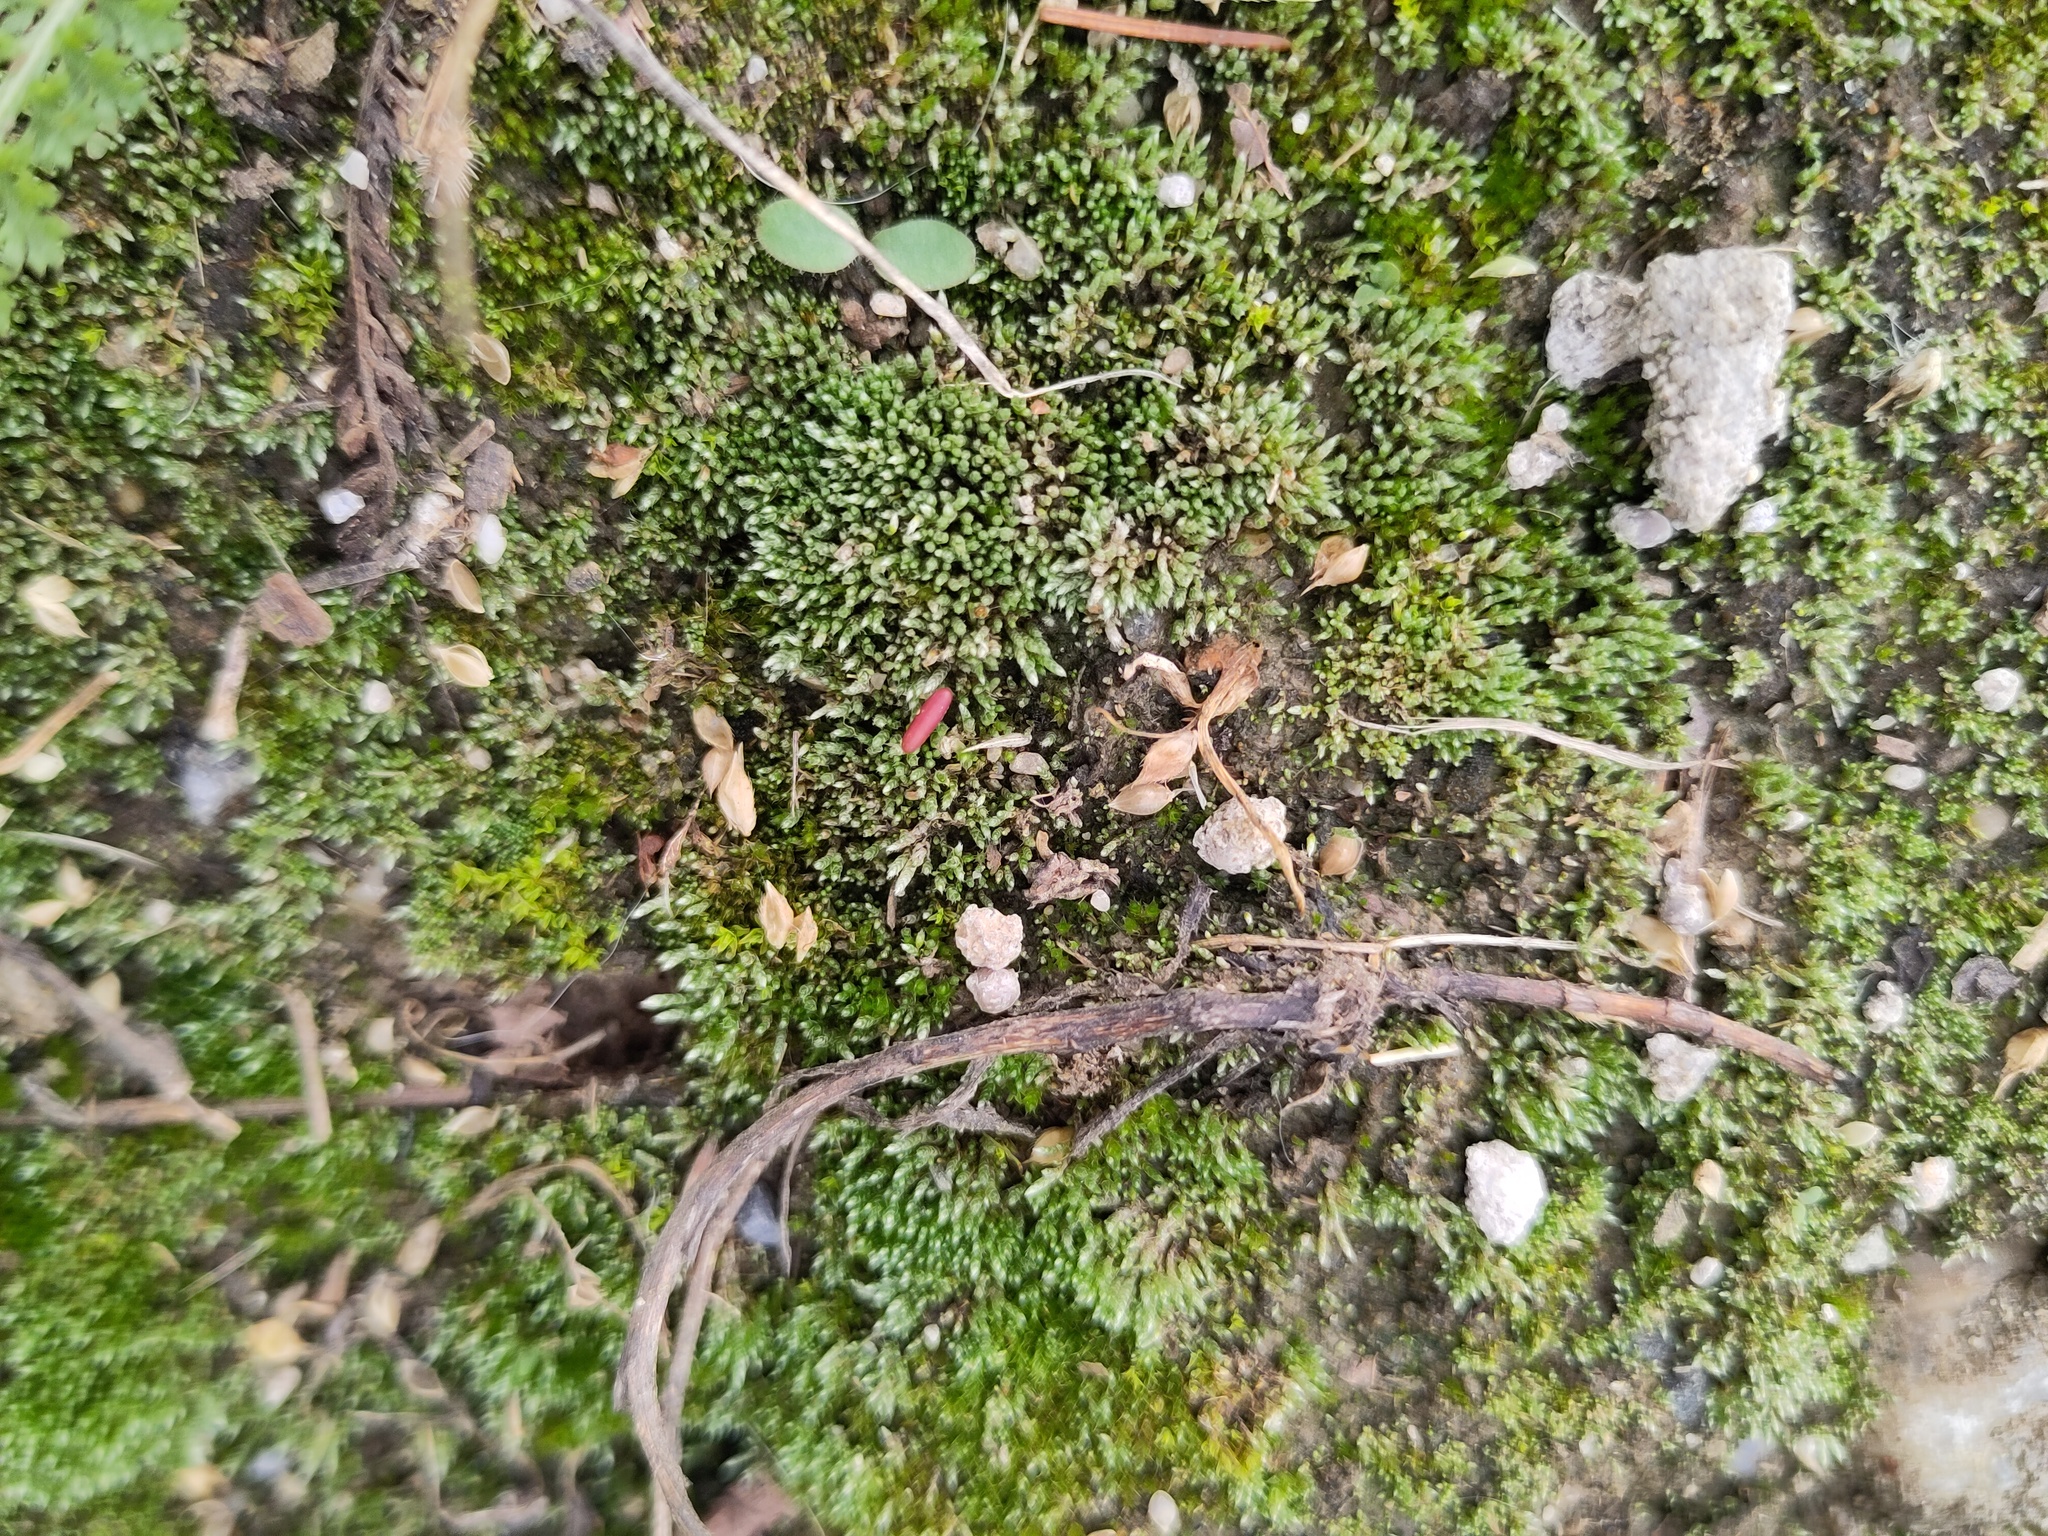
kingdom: Plantae
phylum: Bryophyta
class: Bryopsida
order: Bryales
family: Bryaceae
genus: Bryum
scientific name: Bryum argenteum
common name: Silver-moss
